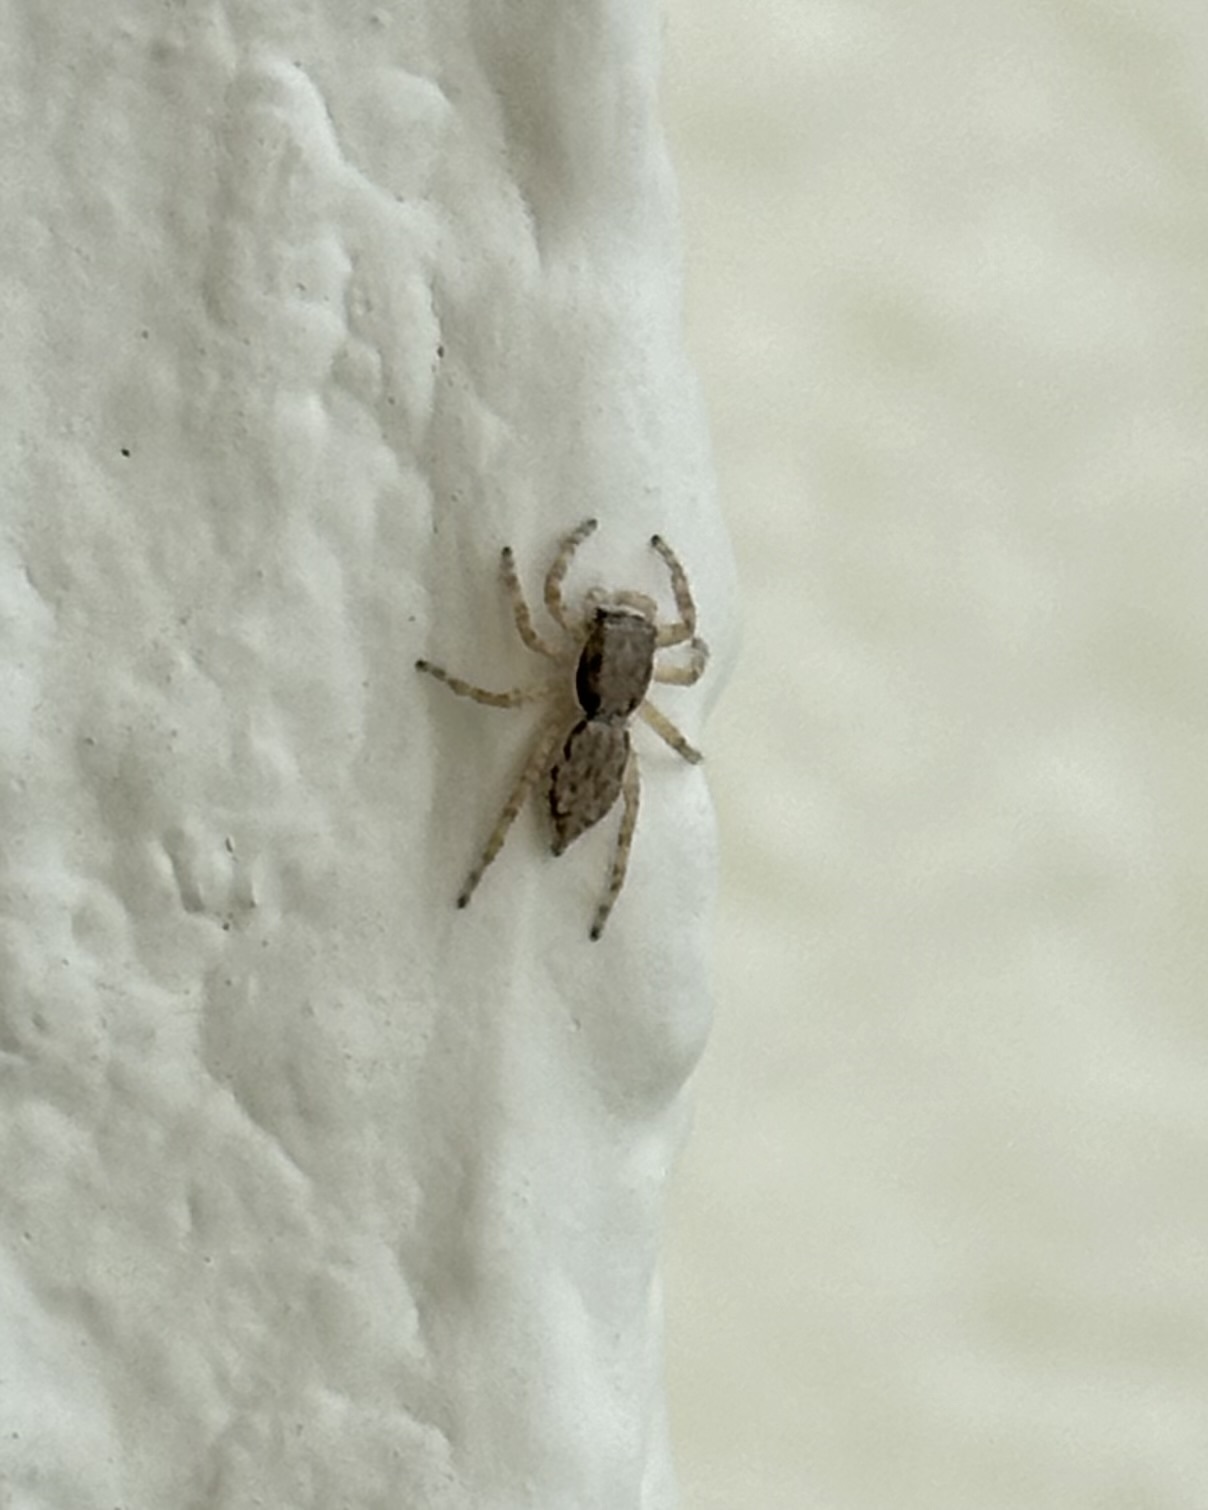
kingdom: Animalia
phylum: Arthropoda
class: Arachnida
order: Araneae
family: Salticidae
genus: Menemerus
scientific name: Menemerus bivittatus
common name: Gray wall jumper
